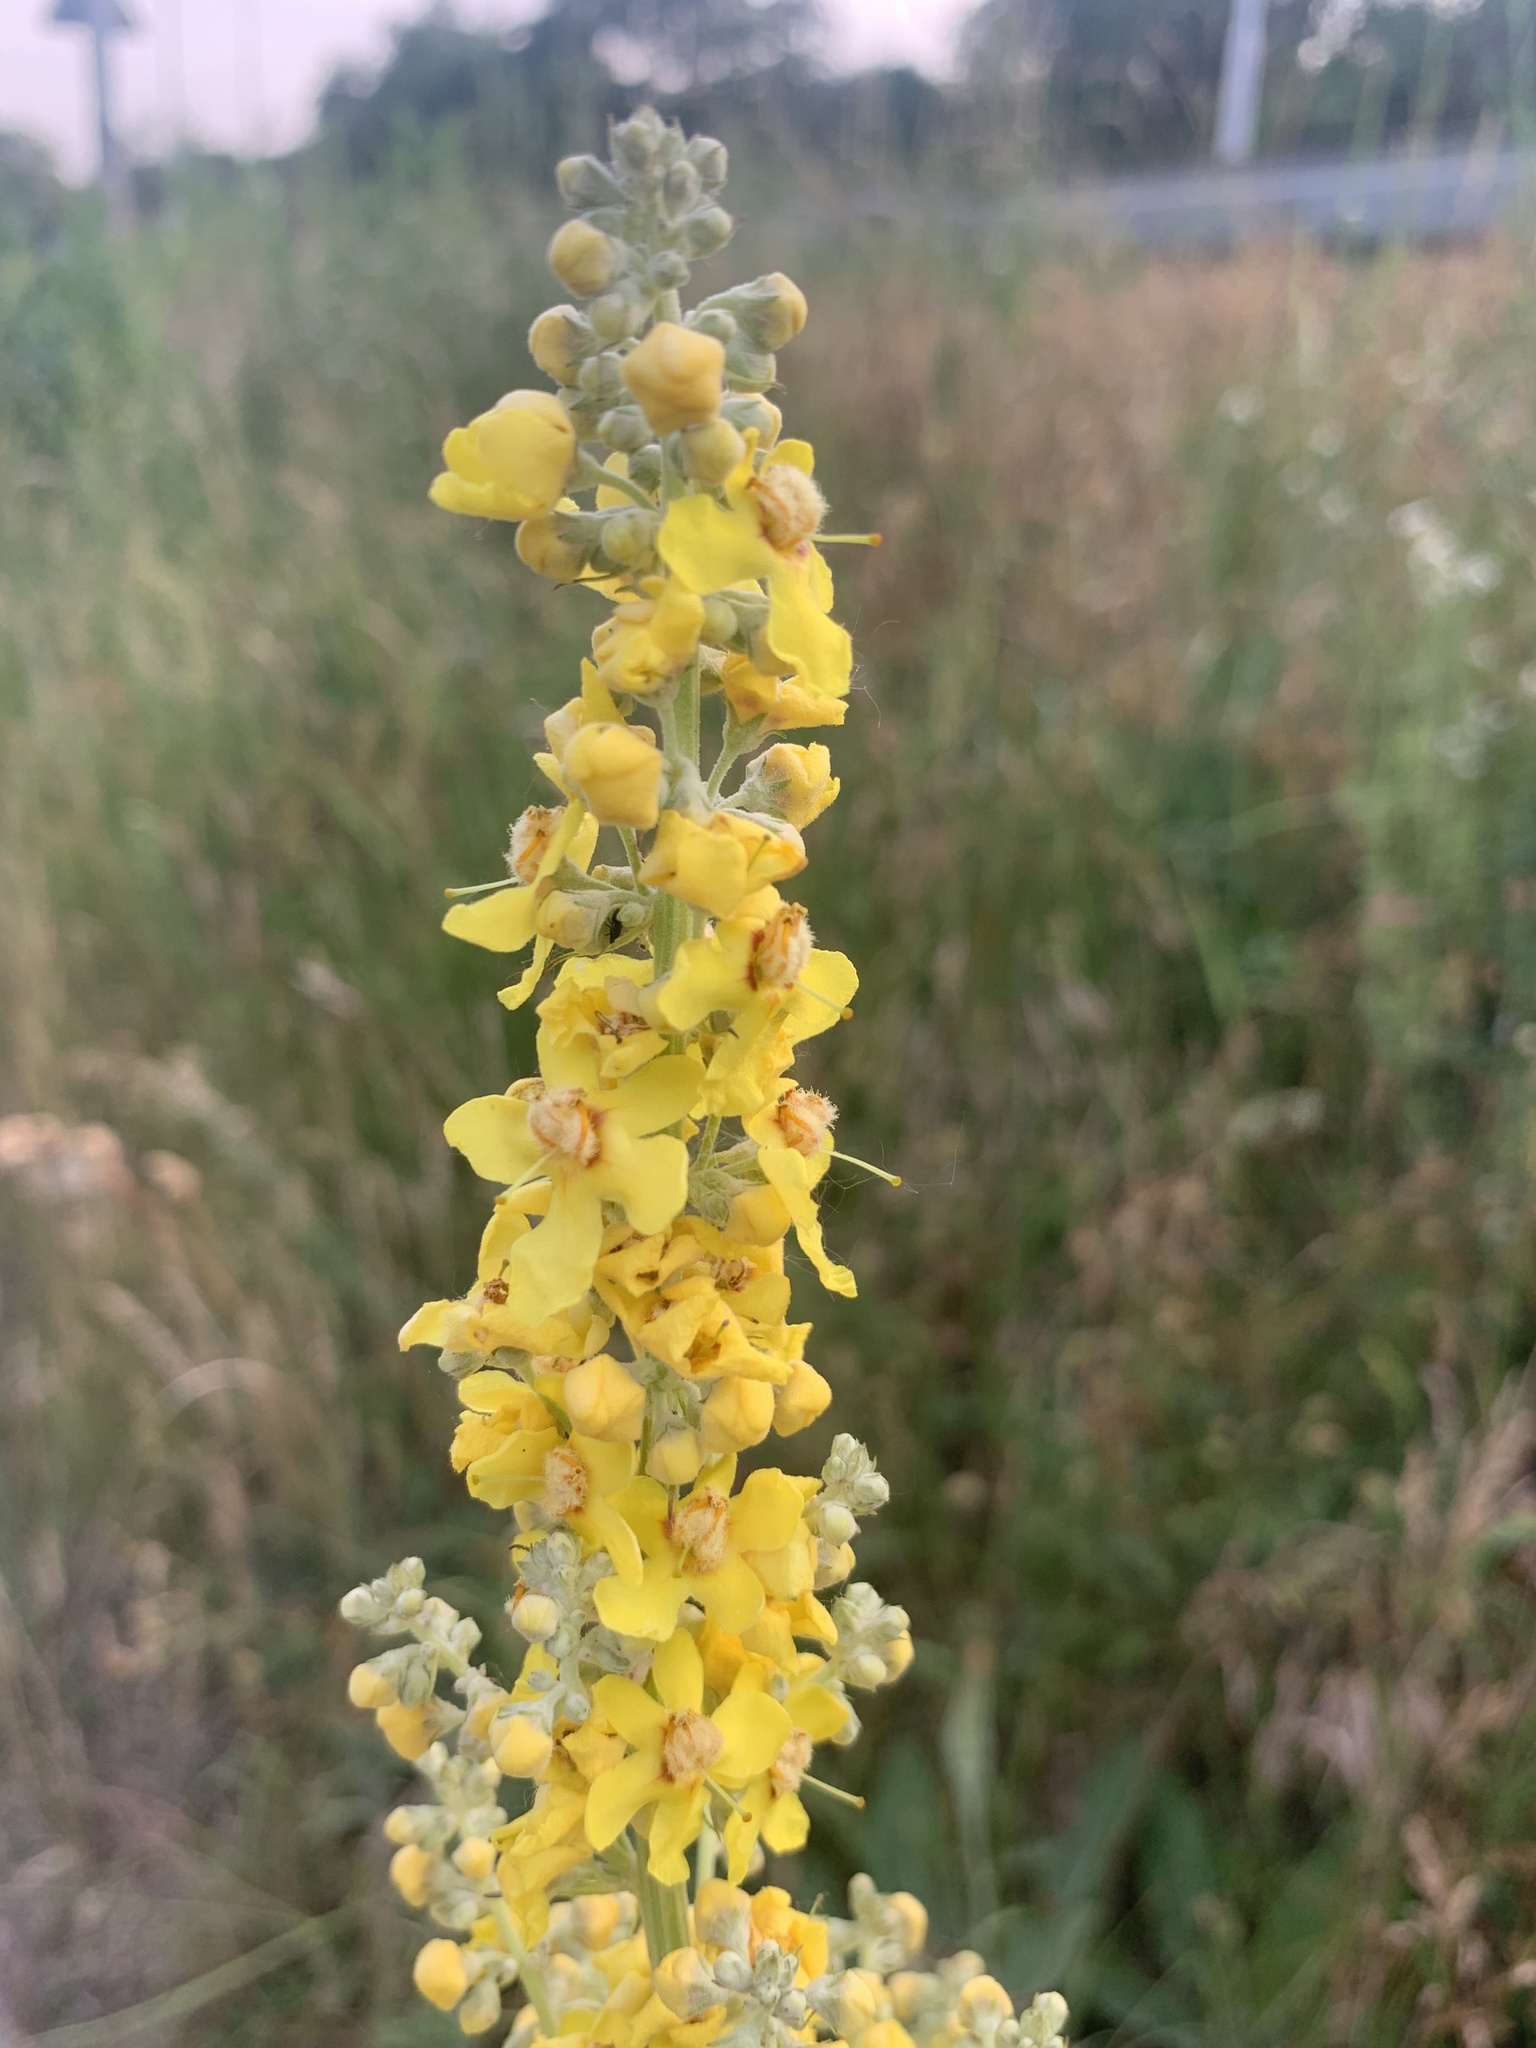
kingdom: Plantae
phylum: Tracheophyta
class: Magnoliopsida
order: Lamiales
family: Scrophulariaceae
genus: Verbascum
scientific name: Verbascum lychnitis
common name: White mullein
